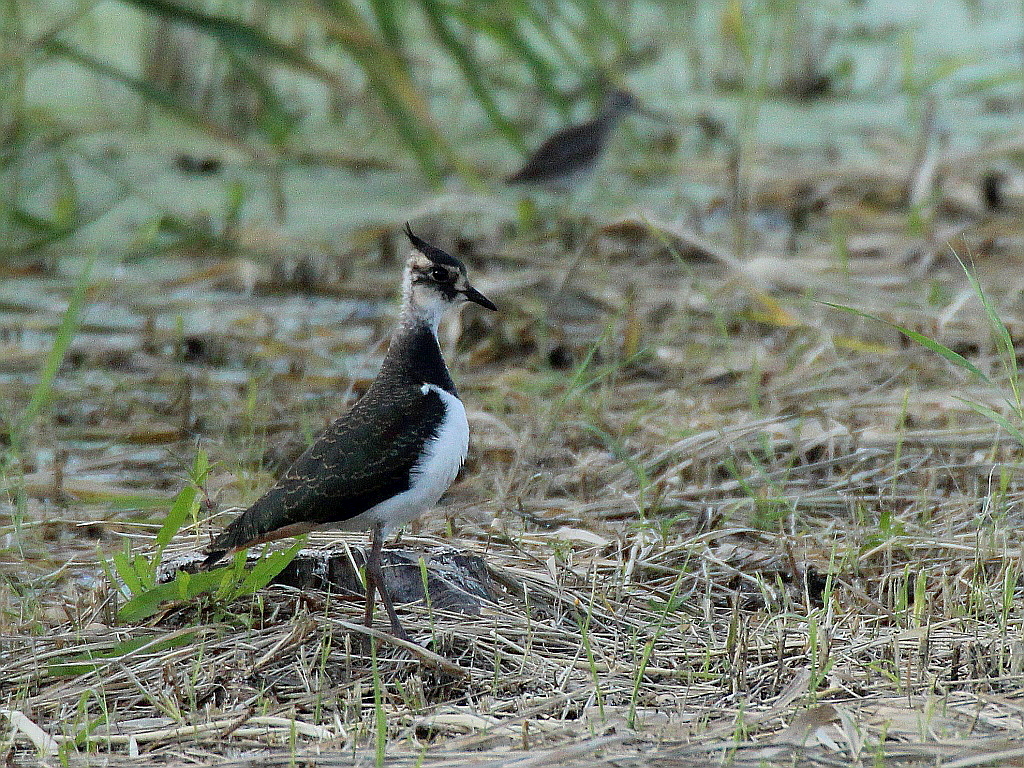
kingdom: Animalia
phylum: Chordata
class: Aves
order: Charadriiformes
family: Charadriidae
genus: Vanellus
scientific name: Vanellus vanellus
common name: Northern lapwing
